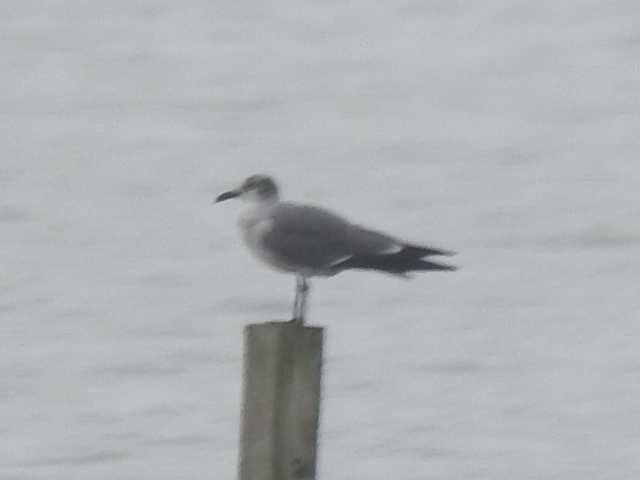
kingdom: Animalia
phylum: Chordata
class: Aves
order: Charadriiformes
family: Laridae
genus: Leucophaeus
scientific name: Leucophaeus atricilla
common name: Laughing gull
